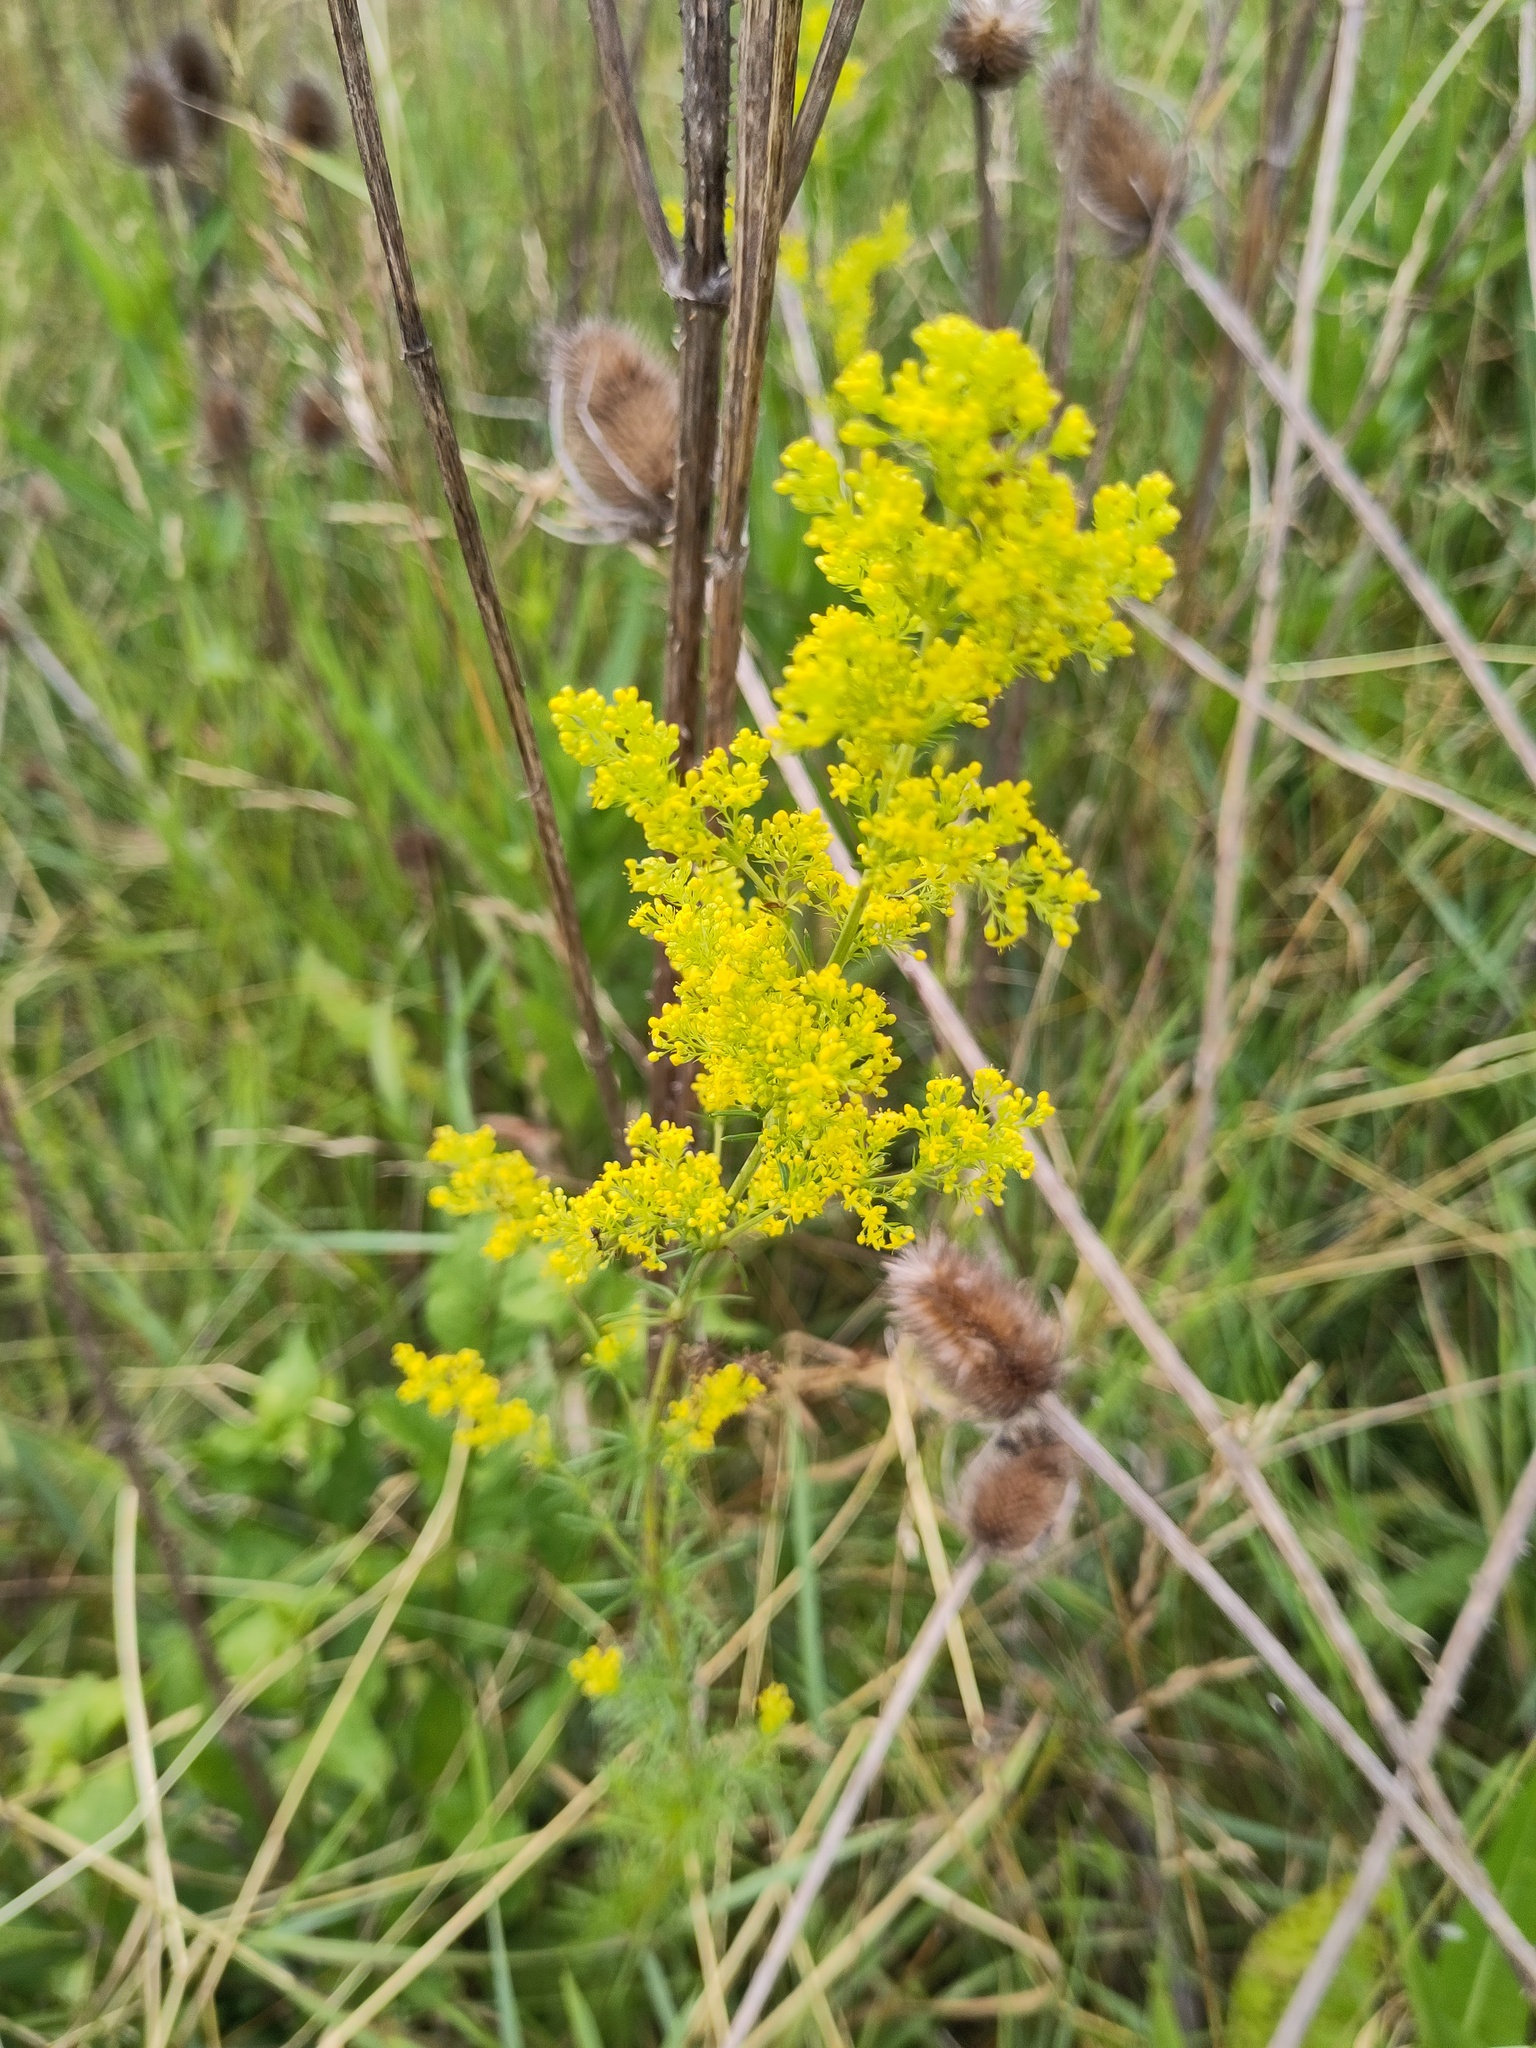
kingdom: Plantae
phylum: Tracheophyta
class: Magnoliopsida
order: Gentianales
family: Rubiaceae
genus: Galium
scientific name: Galium verum
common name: Lady's bedstraw
